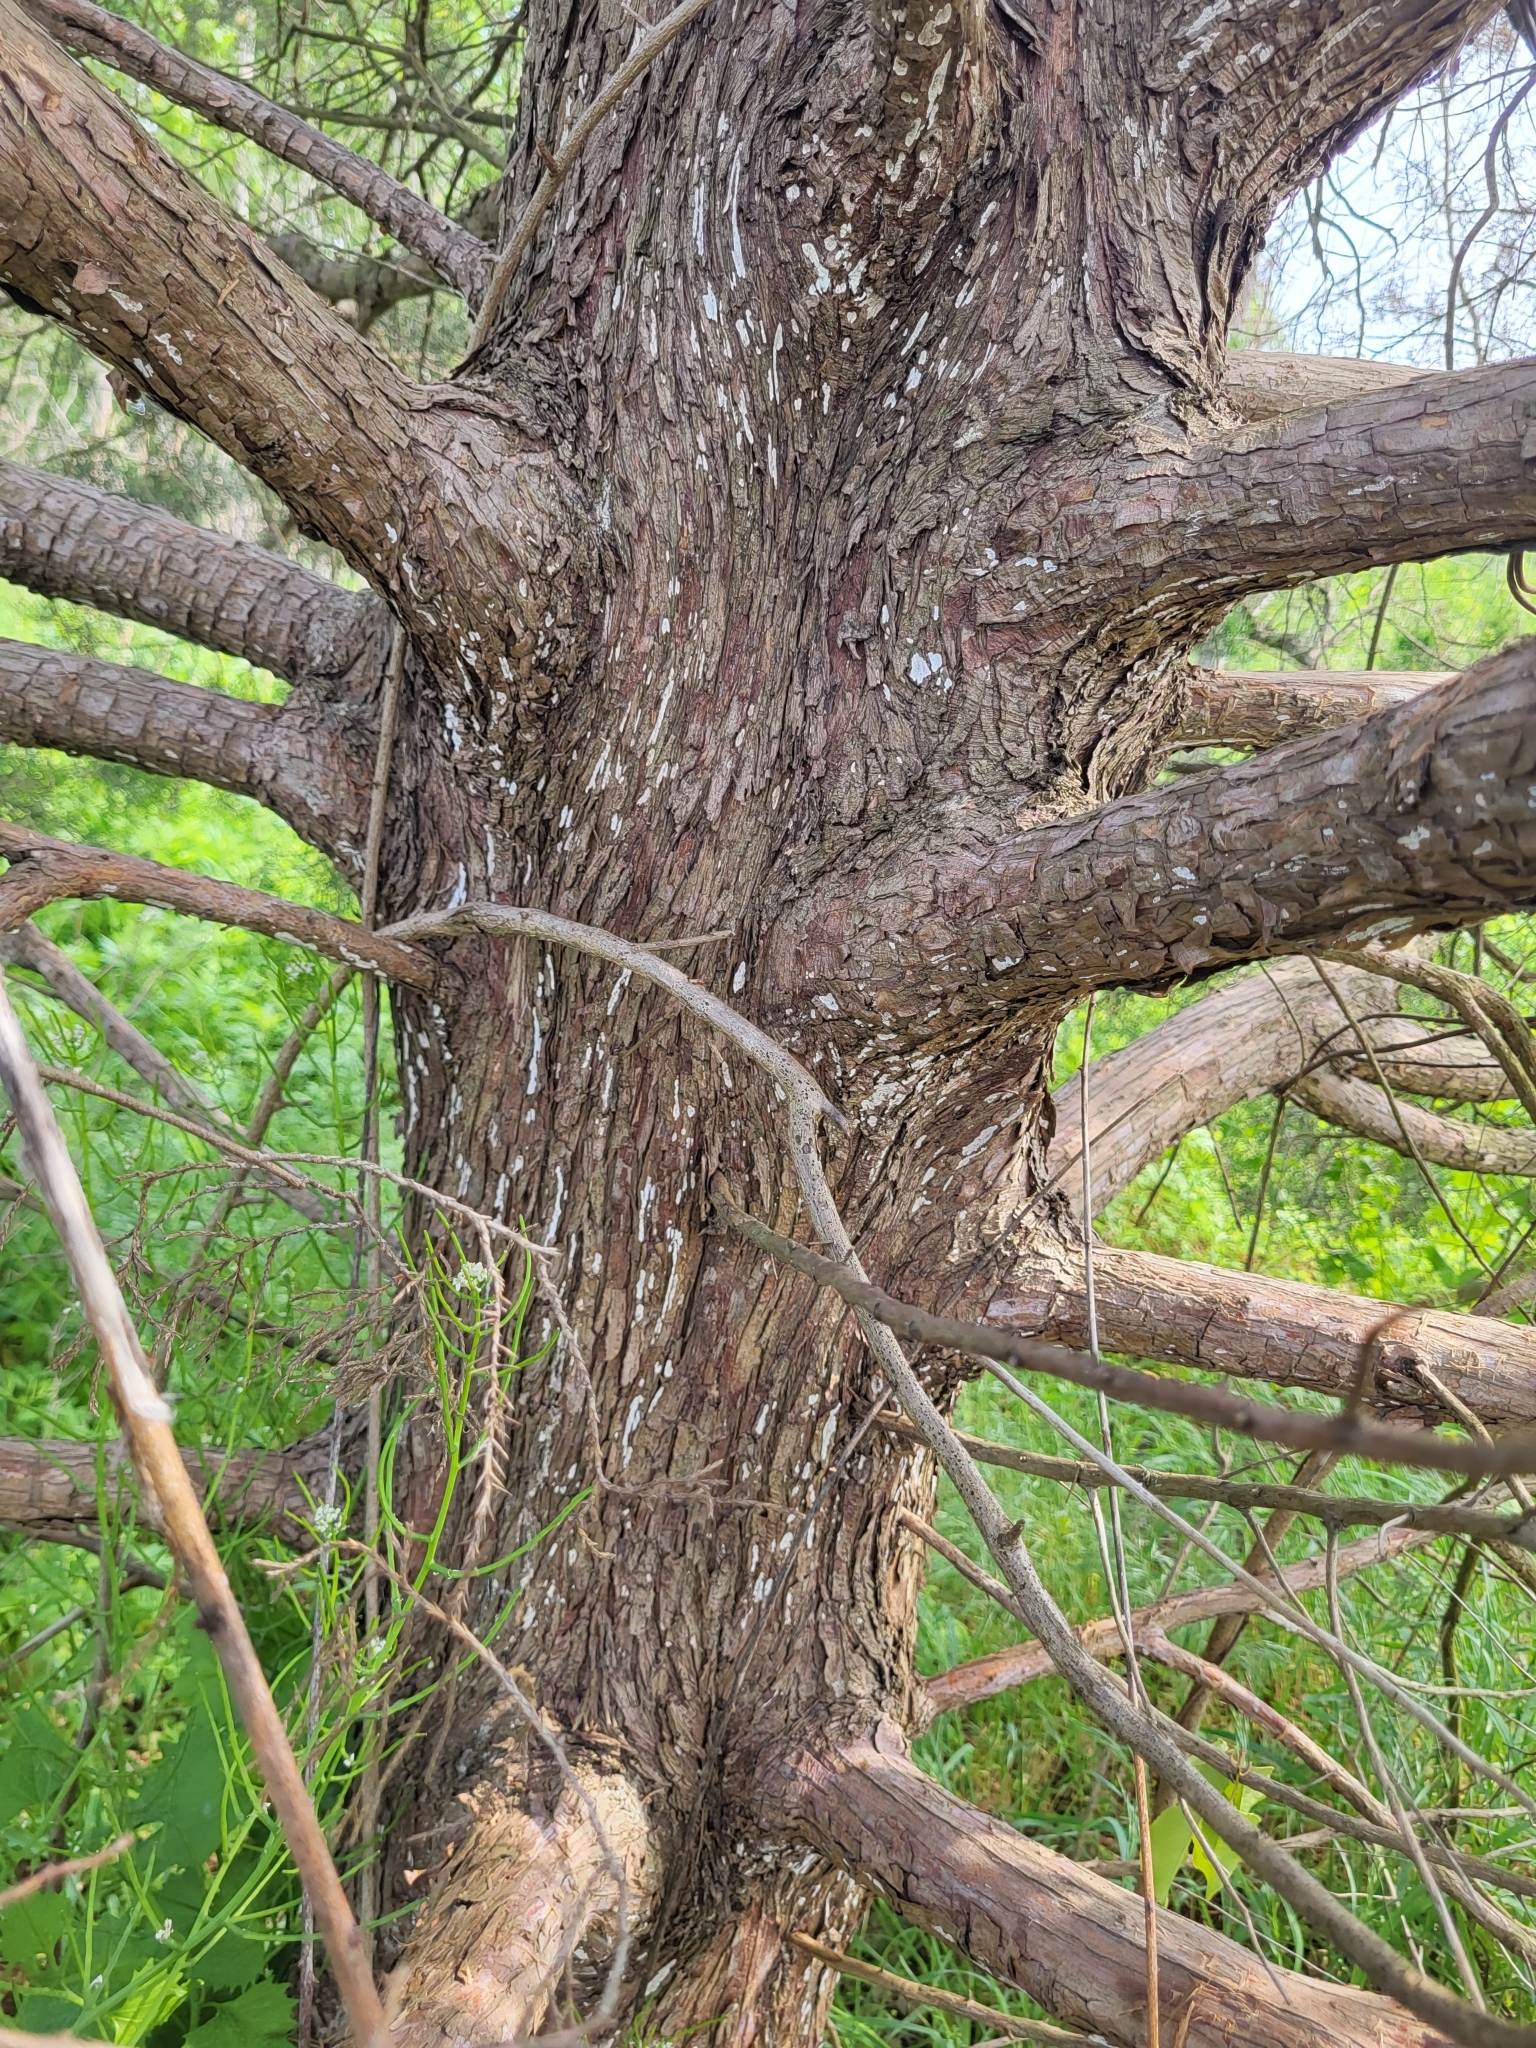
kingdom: Fungi
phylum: Basidiomycota
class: Agaricomycetes
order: Agaricales
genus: Dendrothele
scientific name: Dendrothele nivosa
